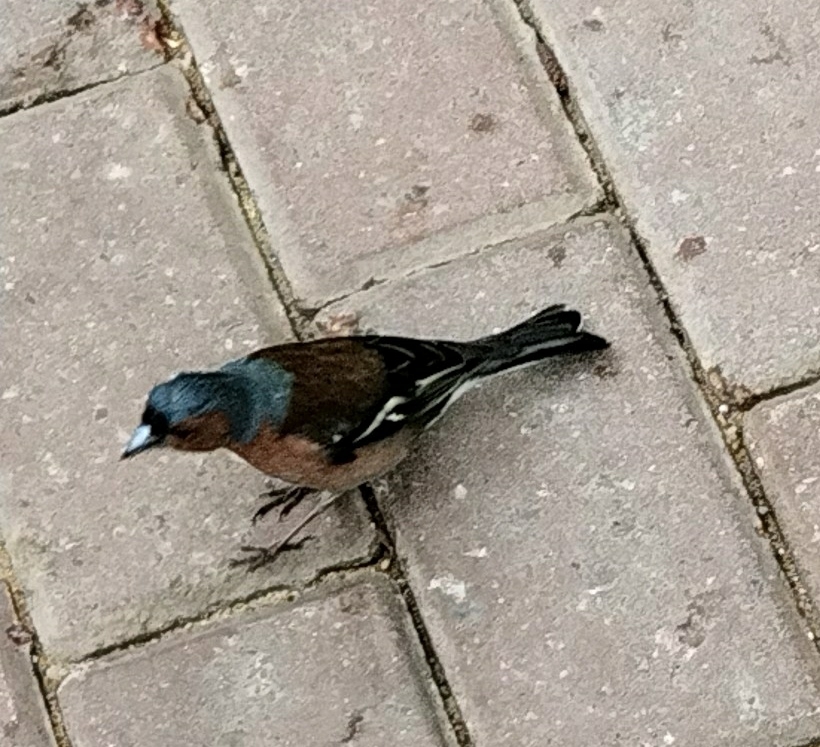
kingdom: Animalia
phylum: Chordata
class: Aves
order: Passeriformes
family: Fringillidae
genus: Fringilla
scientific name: Fringilla coelebs
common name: Common chaffinch
